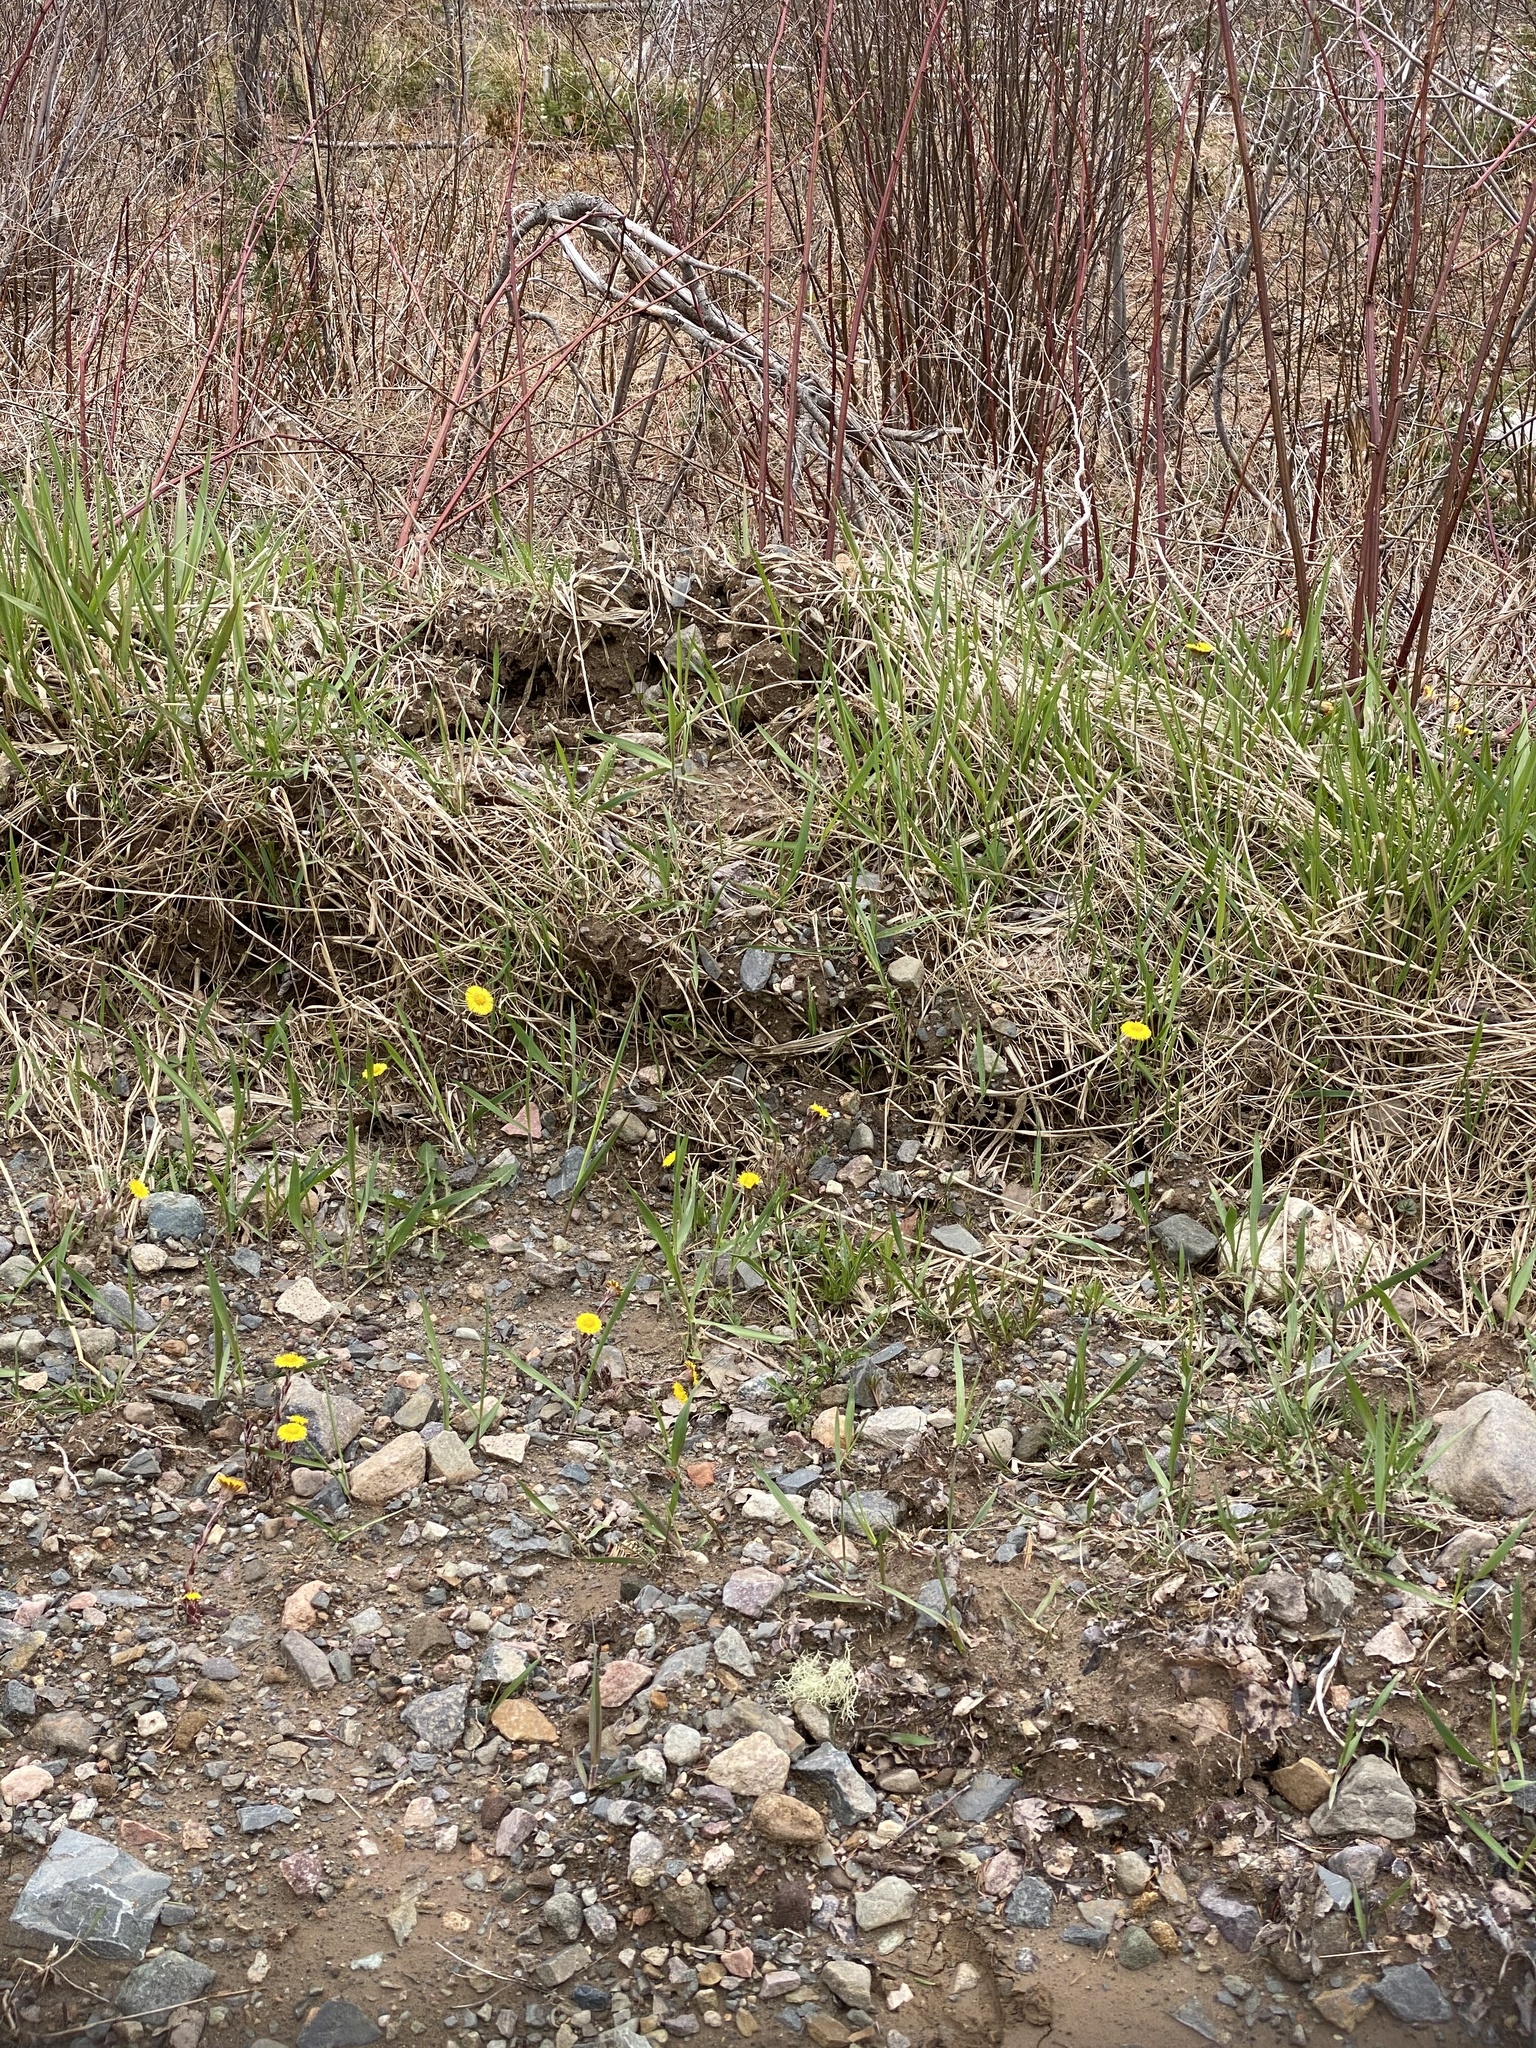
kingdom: Plantae
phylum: Tracheophyta
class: Magnoliopsida
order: Asterales
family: Asteraceae
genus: Tussilago
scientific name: Tussilago farfara
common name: Coltsfoot
